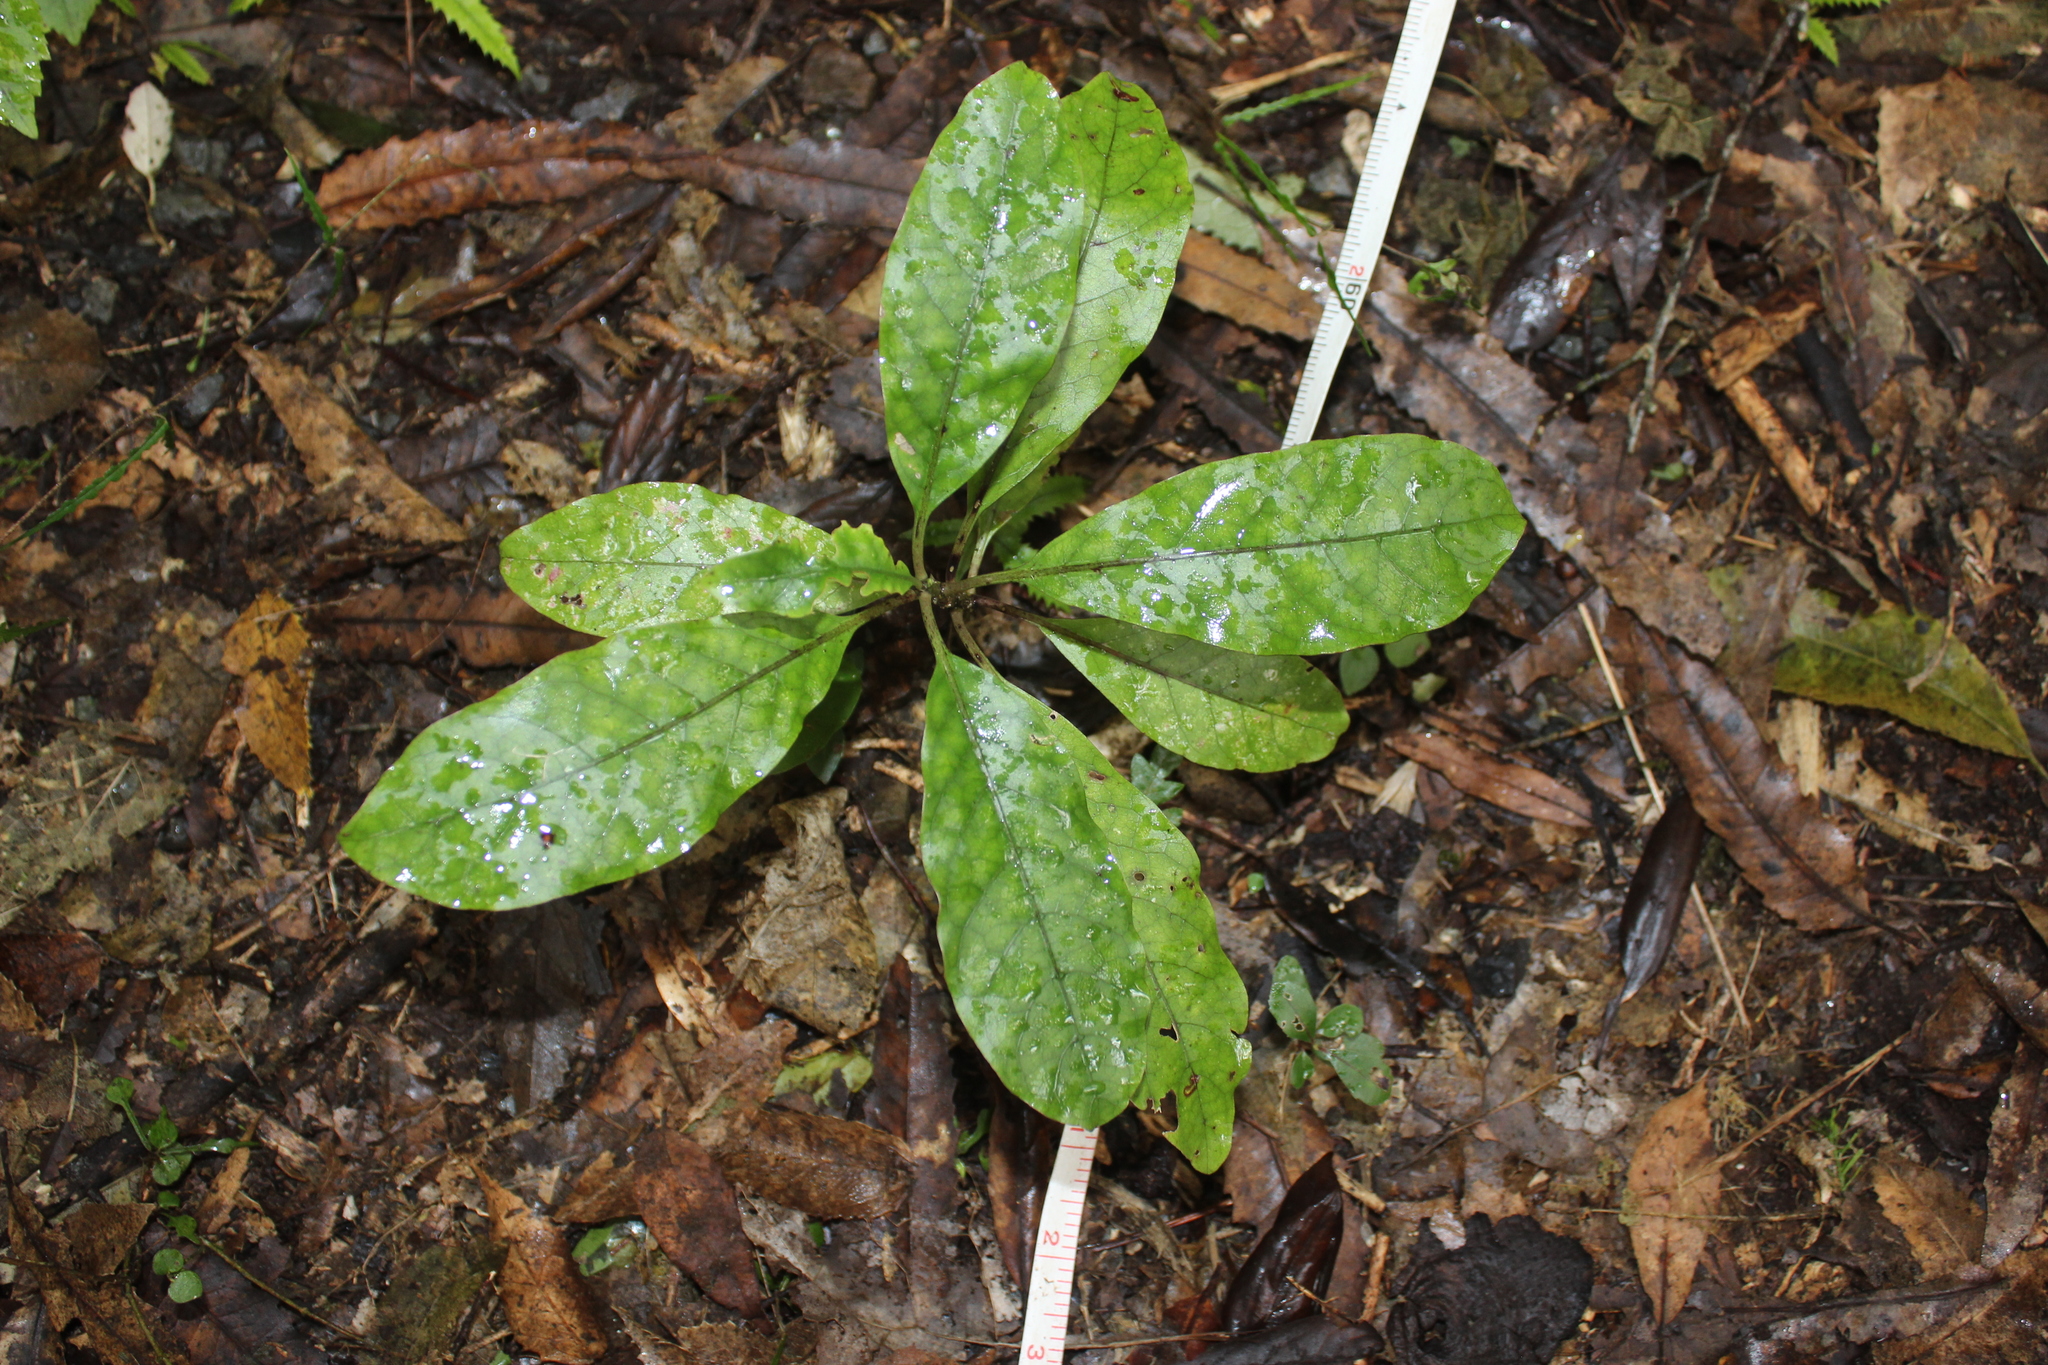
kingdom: Plantae
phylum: Tracheophyta
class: Magnoliopsida
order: Gentianales
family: Rubiaceae
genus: Coprosma
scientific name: Coprosma autumnalis
